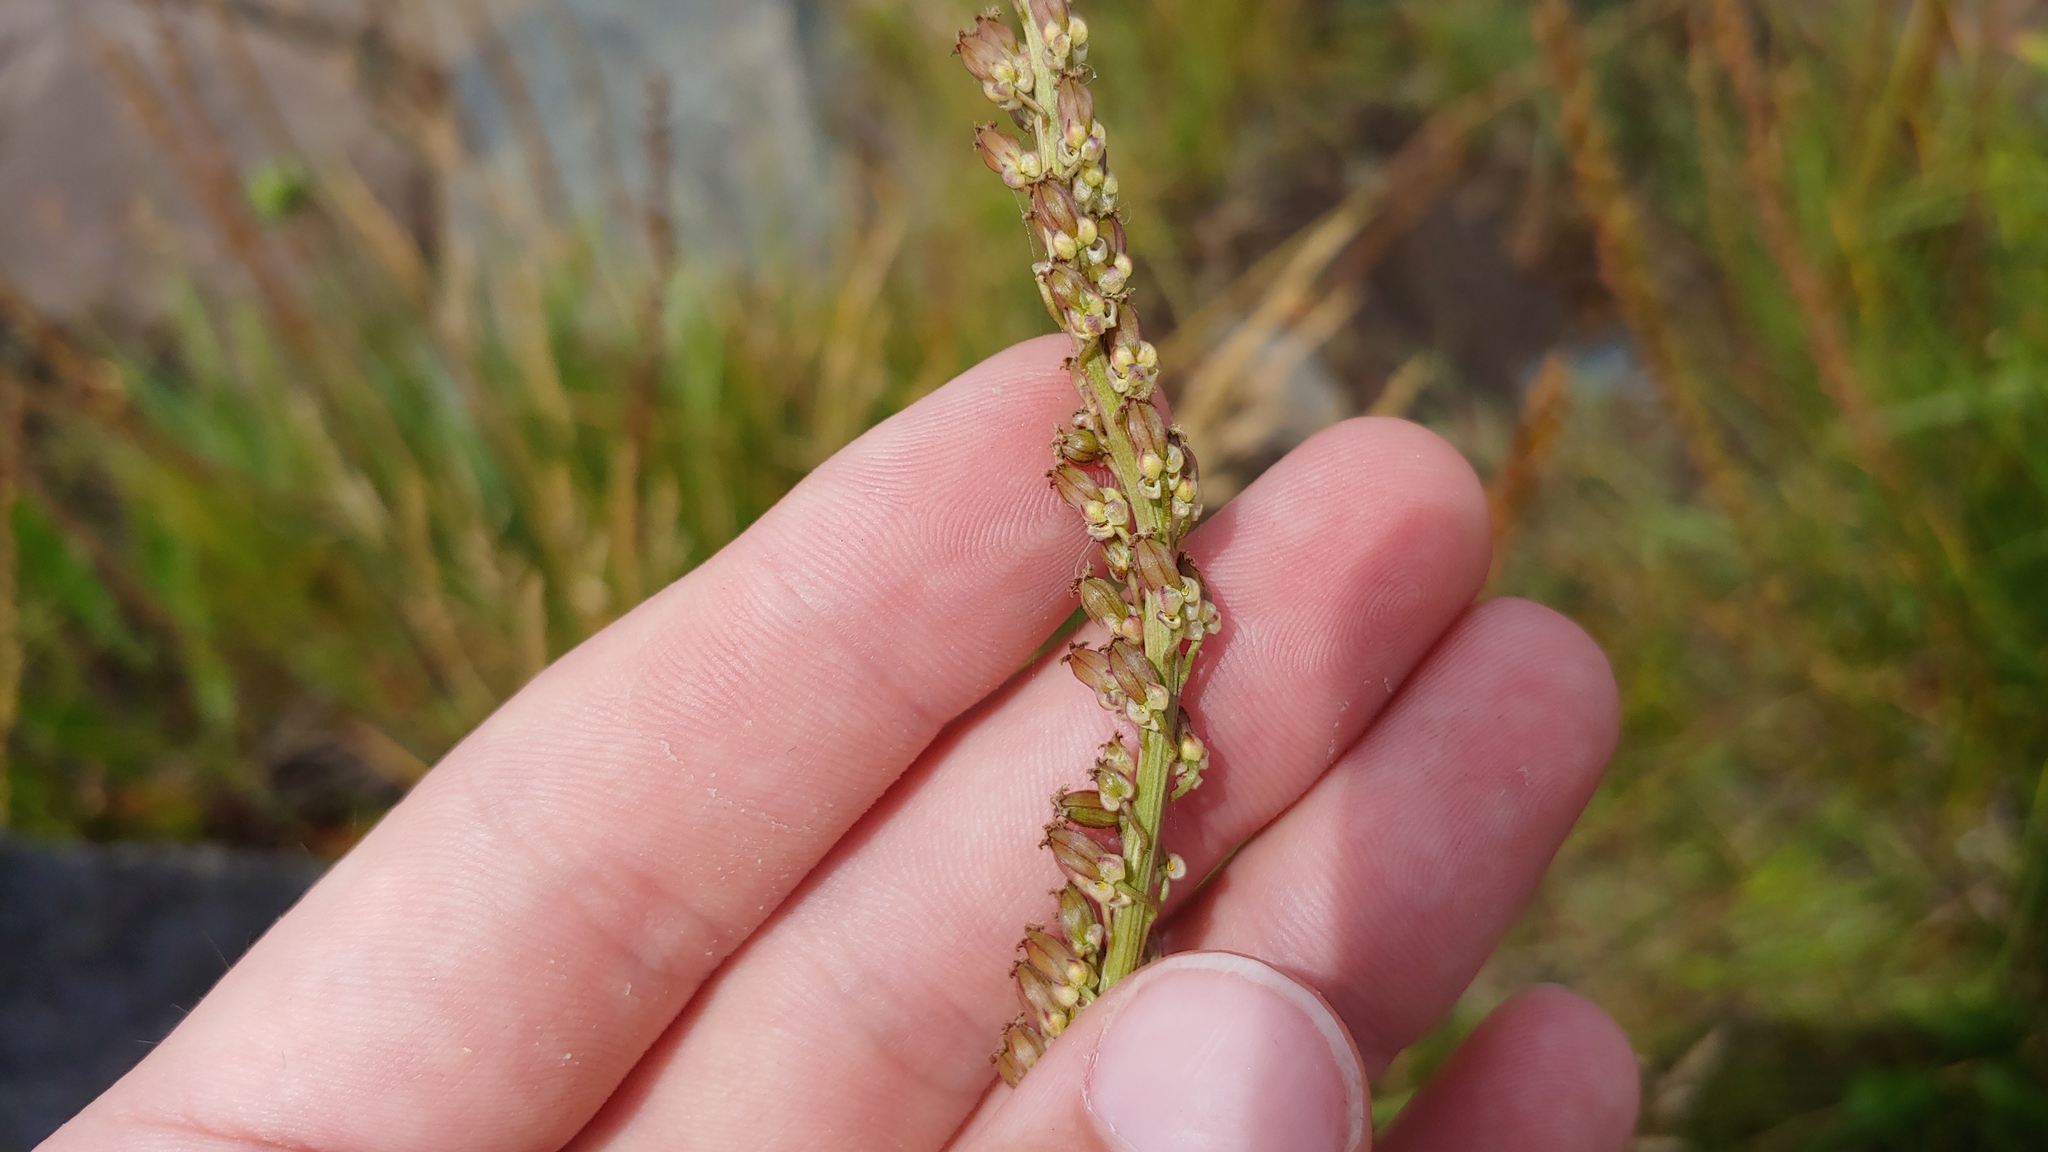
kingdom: Plantae
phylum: Tracheophyta
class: Liliopsida
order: Alismatales
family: Juncaginaceae
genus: Triglochin
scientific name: Triglochin maritima
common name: Sea arrowgrass
